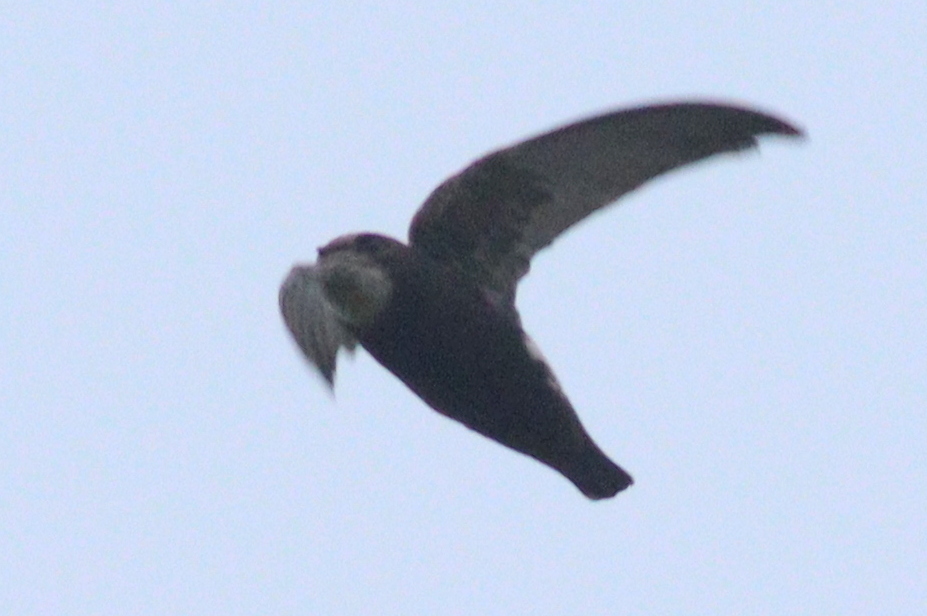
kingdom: Animalia
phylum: Chordata
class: Aves
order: Apodiformes
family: Apodidae
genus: Apus
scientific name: Apus affinis
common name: Little swift
